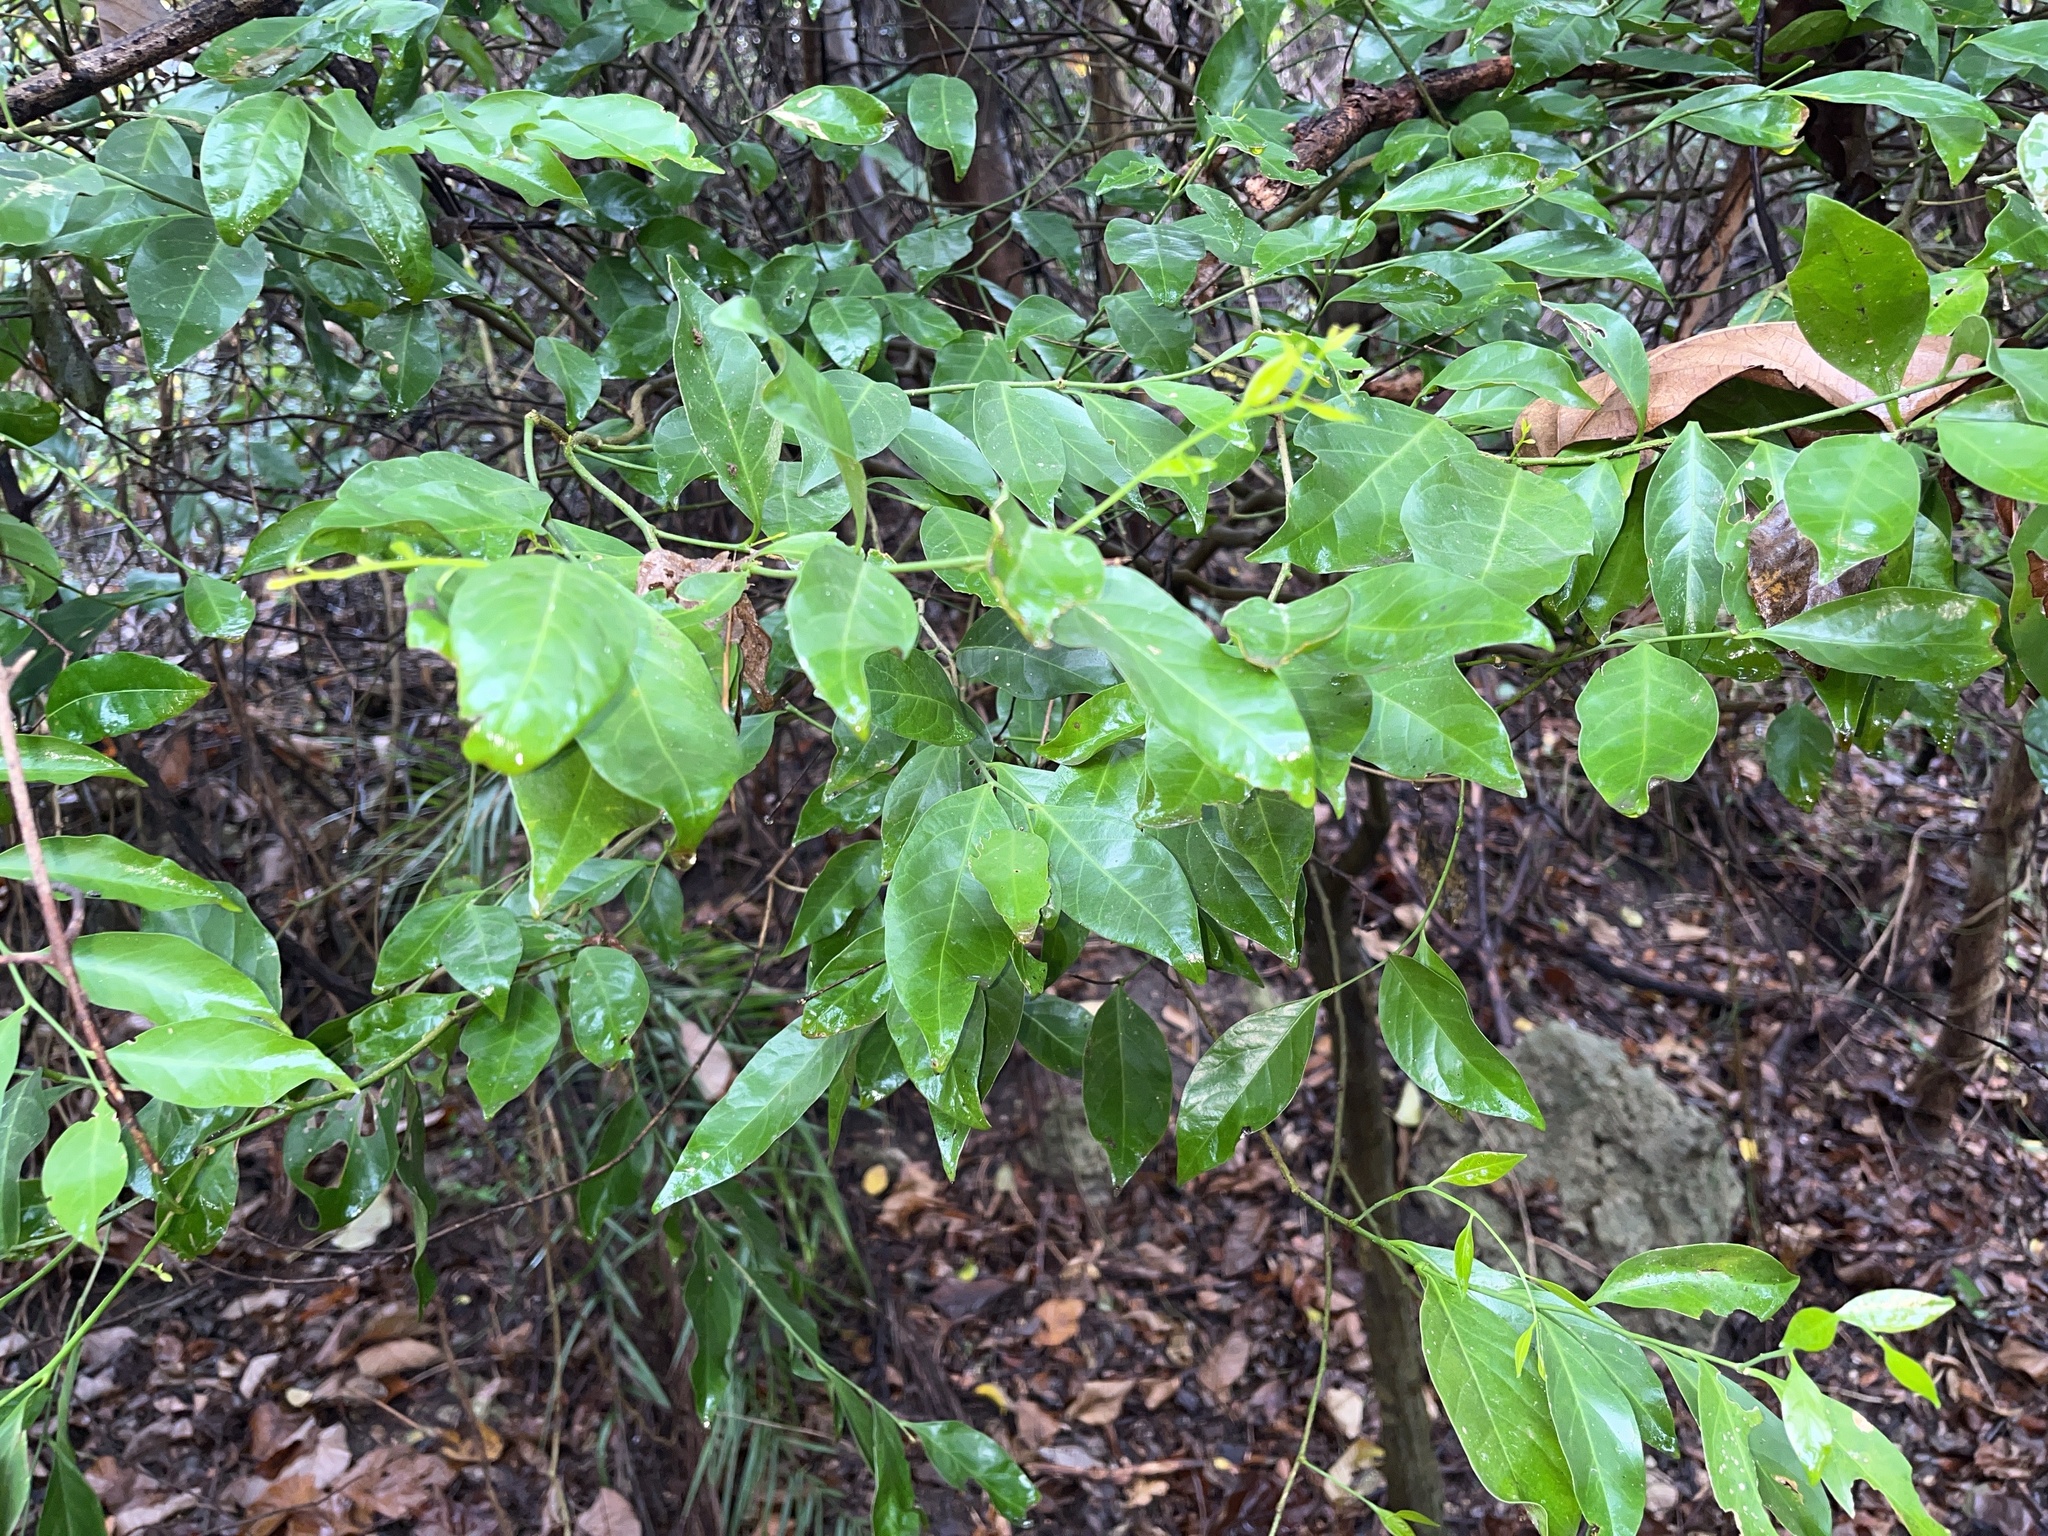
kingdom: Plantae
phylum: Tracheophyta
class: Magnoliopsida
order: Santalales
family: Opiliaceae
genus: Champereia
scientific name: Champereia manillana
